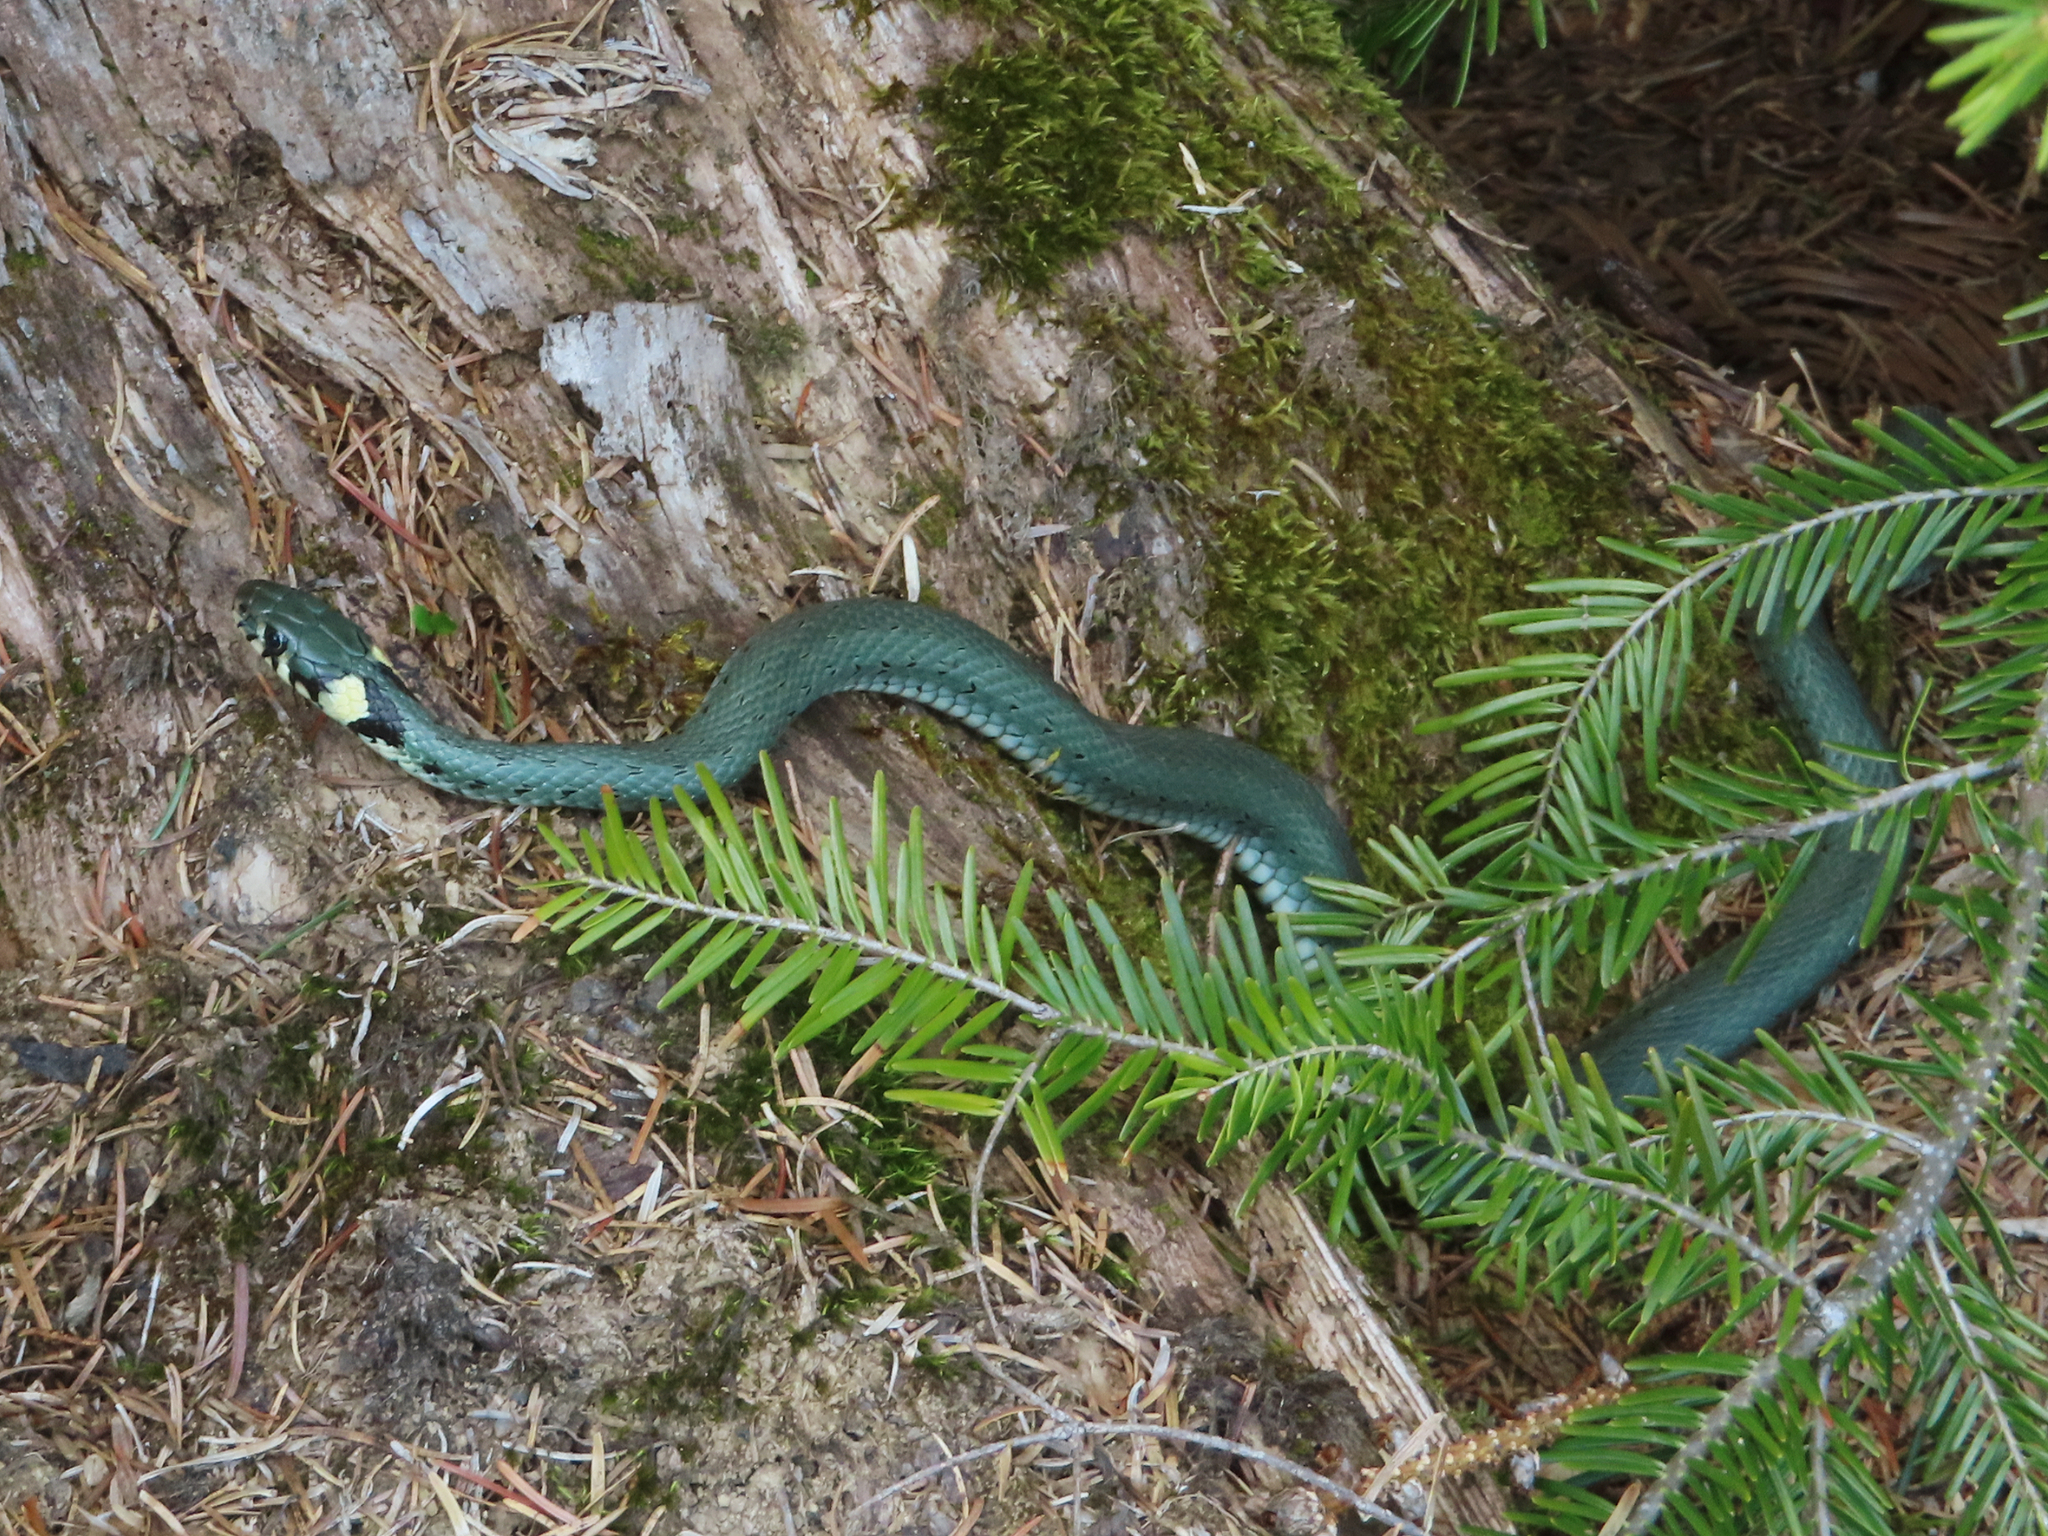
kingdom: Animalia
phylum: Chordata
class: Squamata
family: Colubridae
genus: Natrix
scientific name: Natrix natrix
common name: Grass snake
